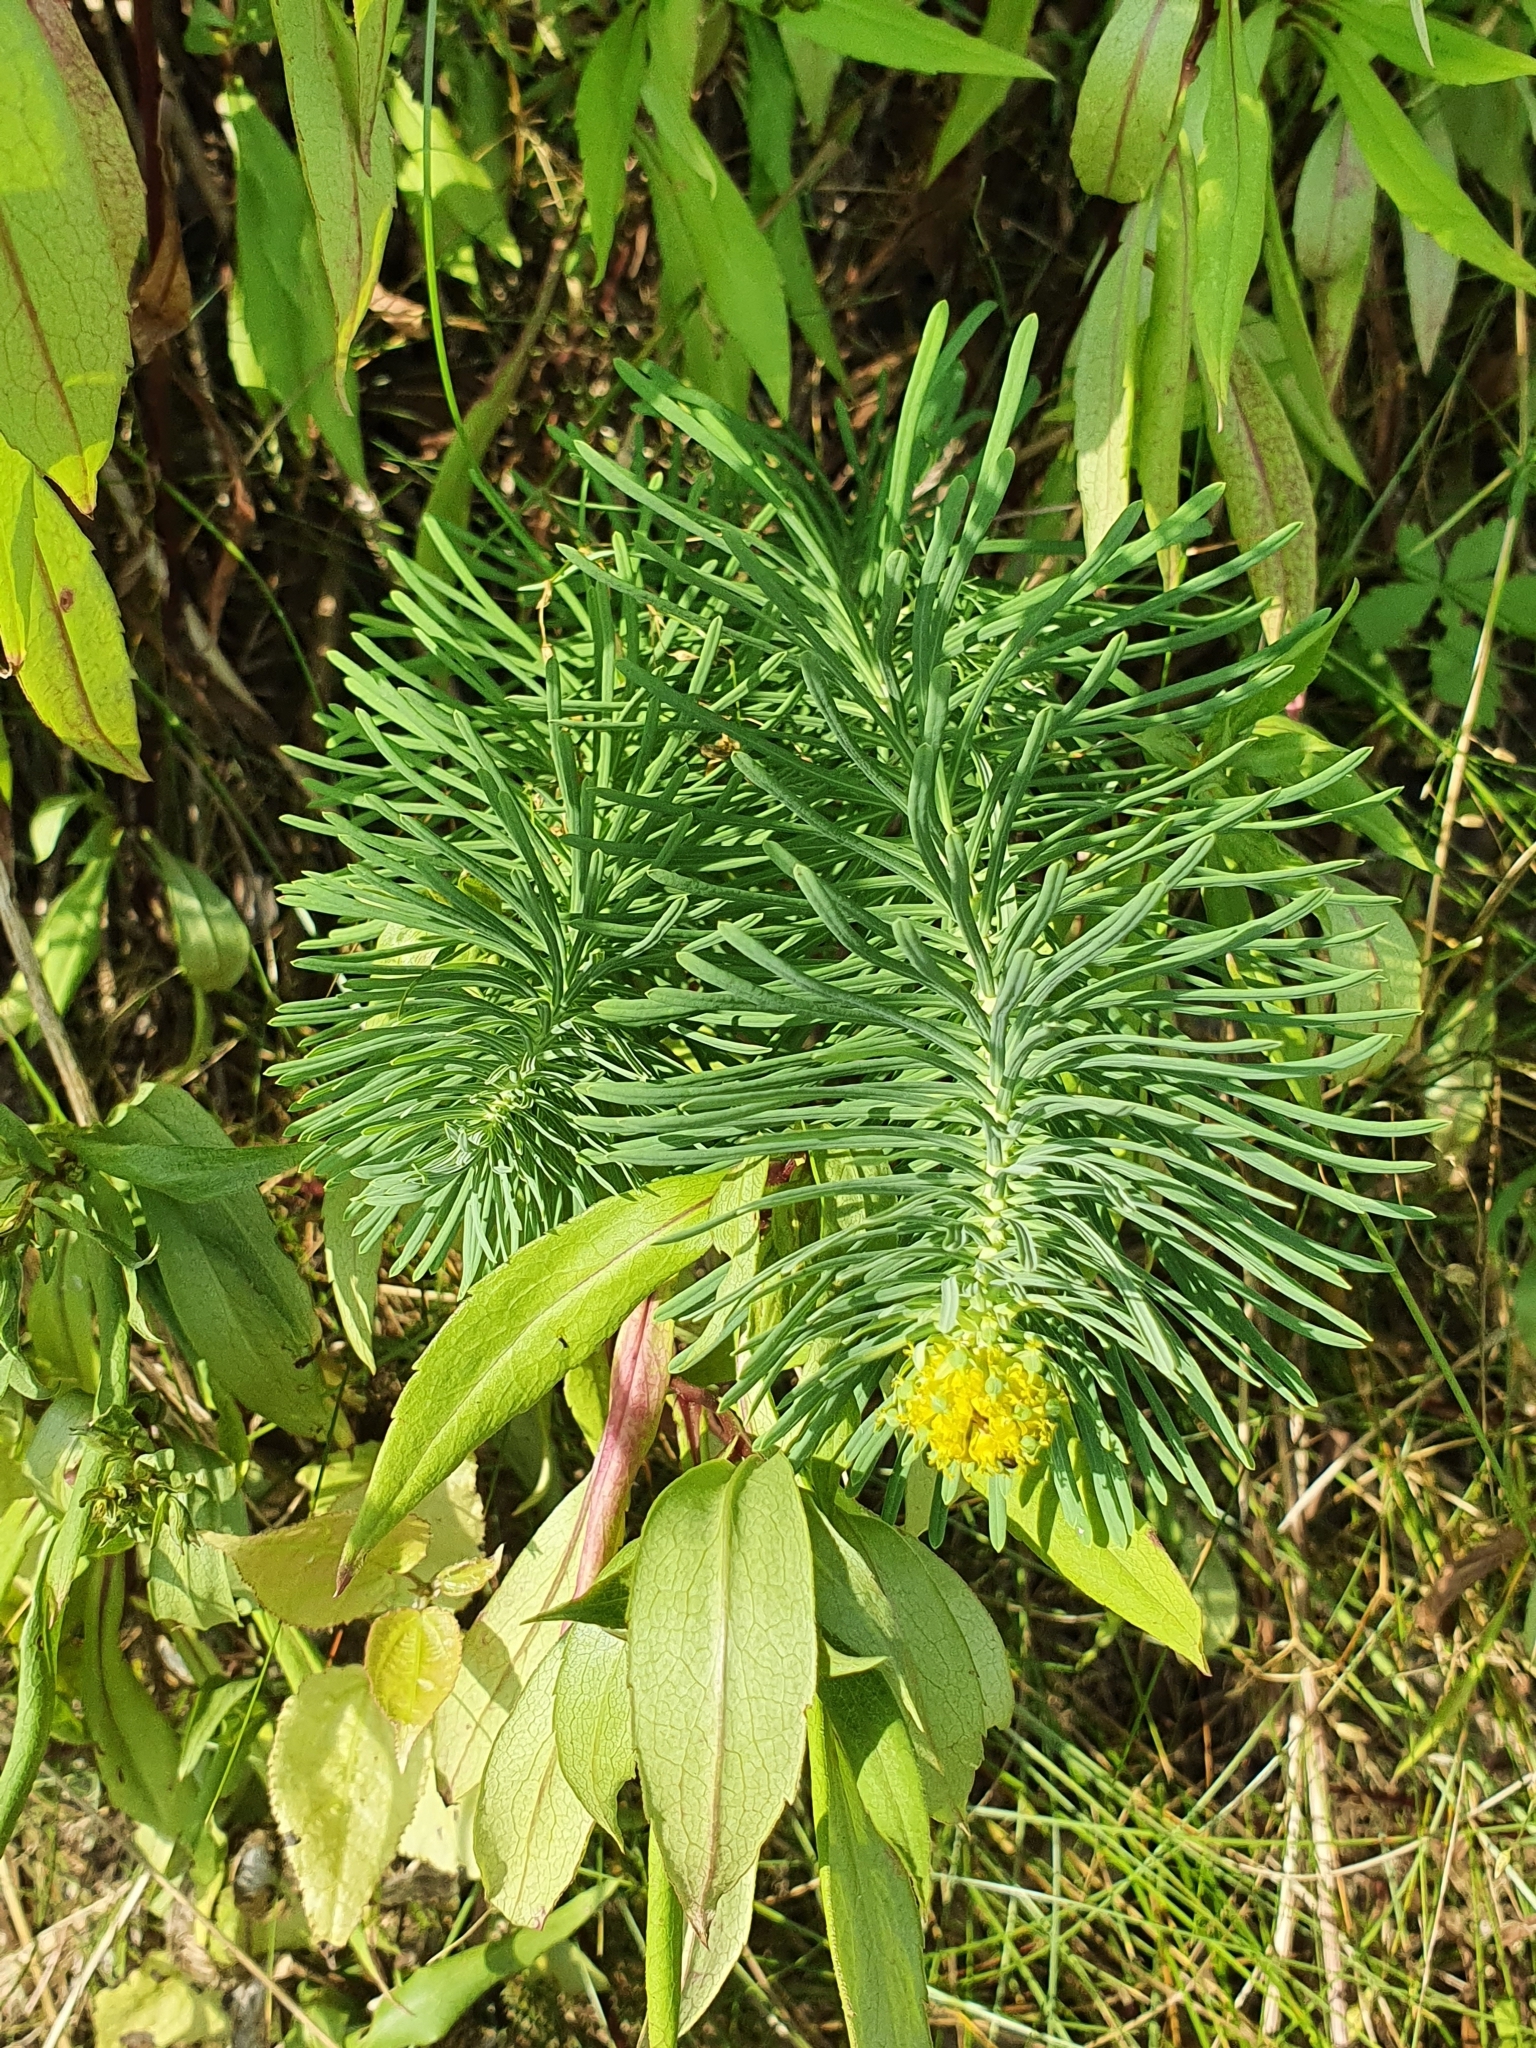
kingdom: Plantae
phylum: Tracheophyta
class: Magnoliopsida
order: Malpighiales
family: Euphorbiaceae
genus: Euphorbia
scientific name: Euphorbia cyparissias
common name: Cypress spurge
